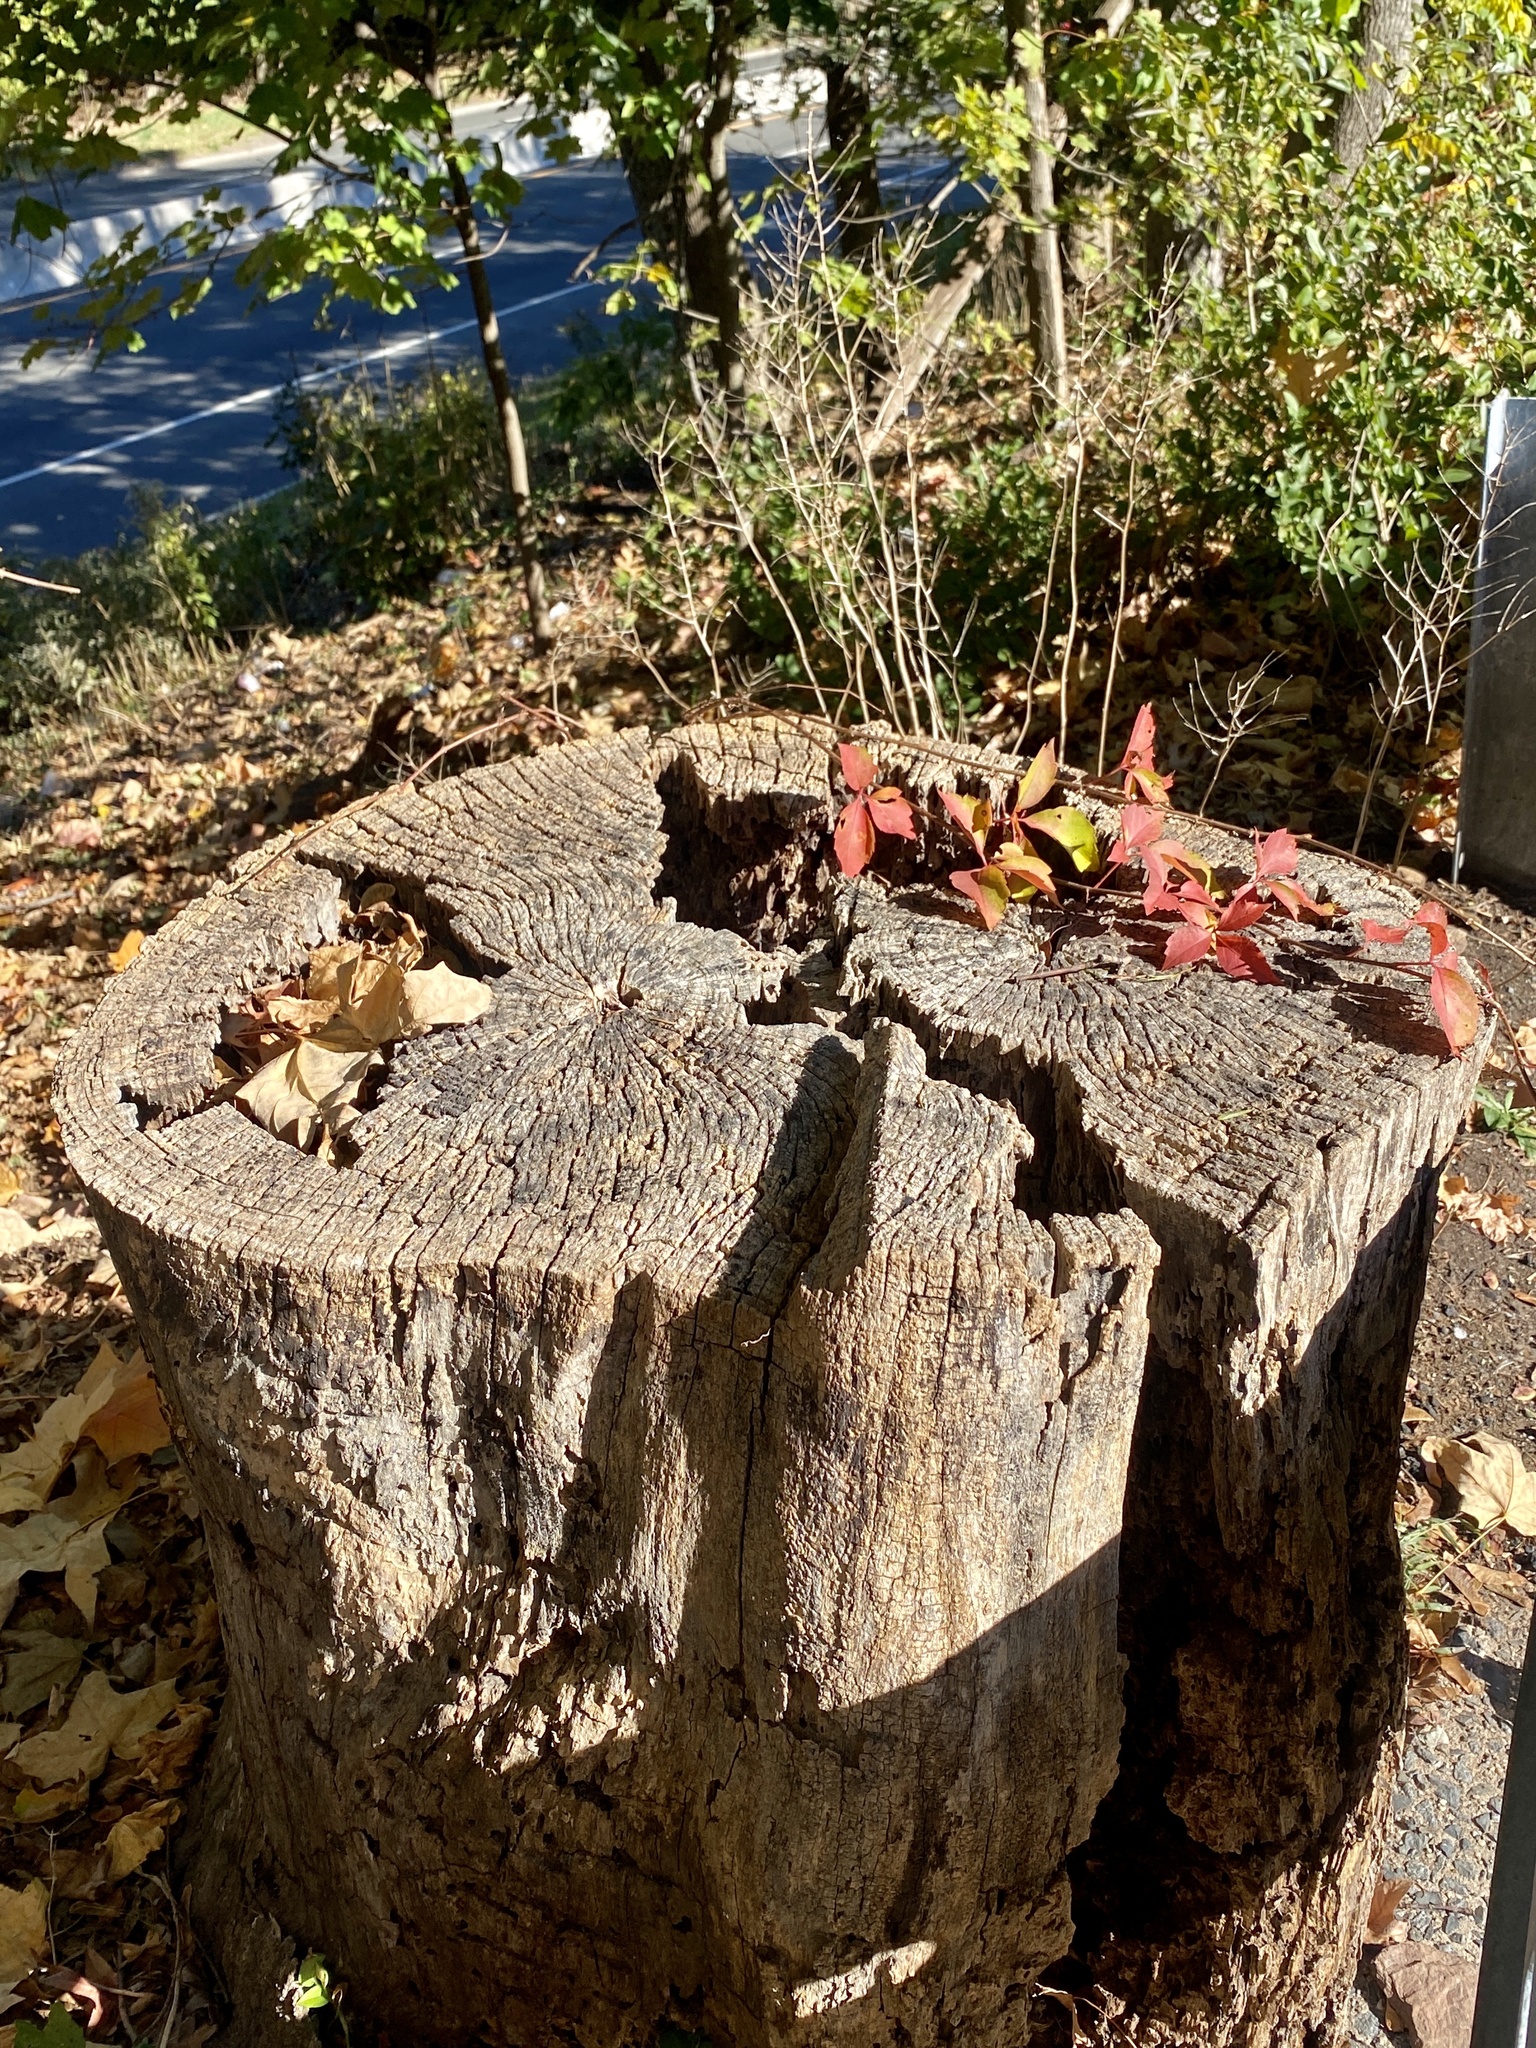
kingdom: Plantae
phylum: Tracheophyta
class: Magnoliopsida
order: Vitales
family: Vitaceae
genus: Parthenocissus
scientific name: Parthenocissus quinquefolia
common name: Virginia-creeper
